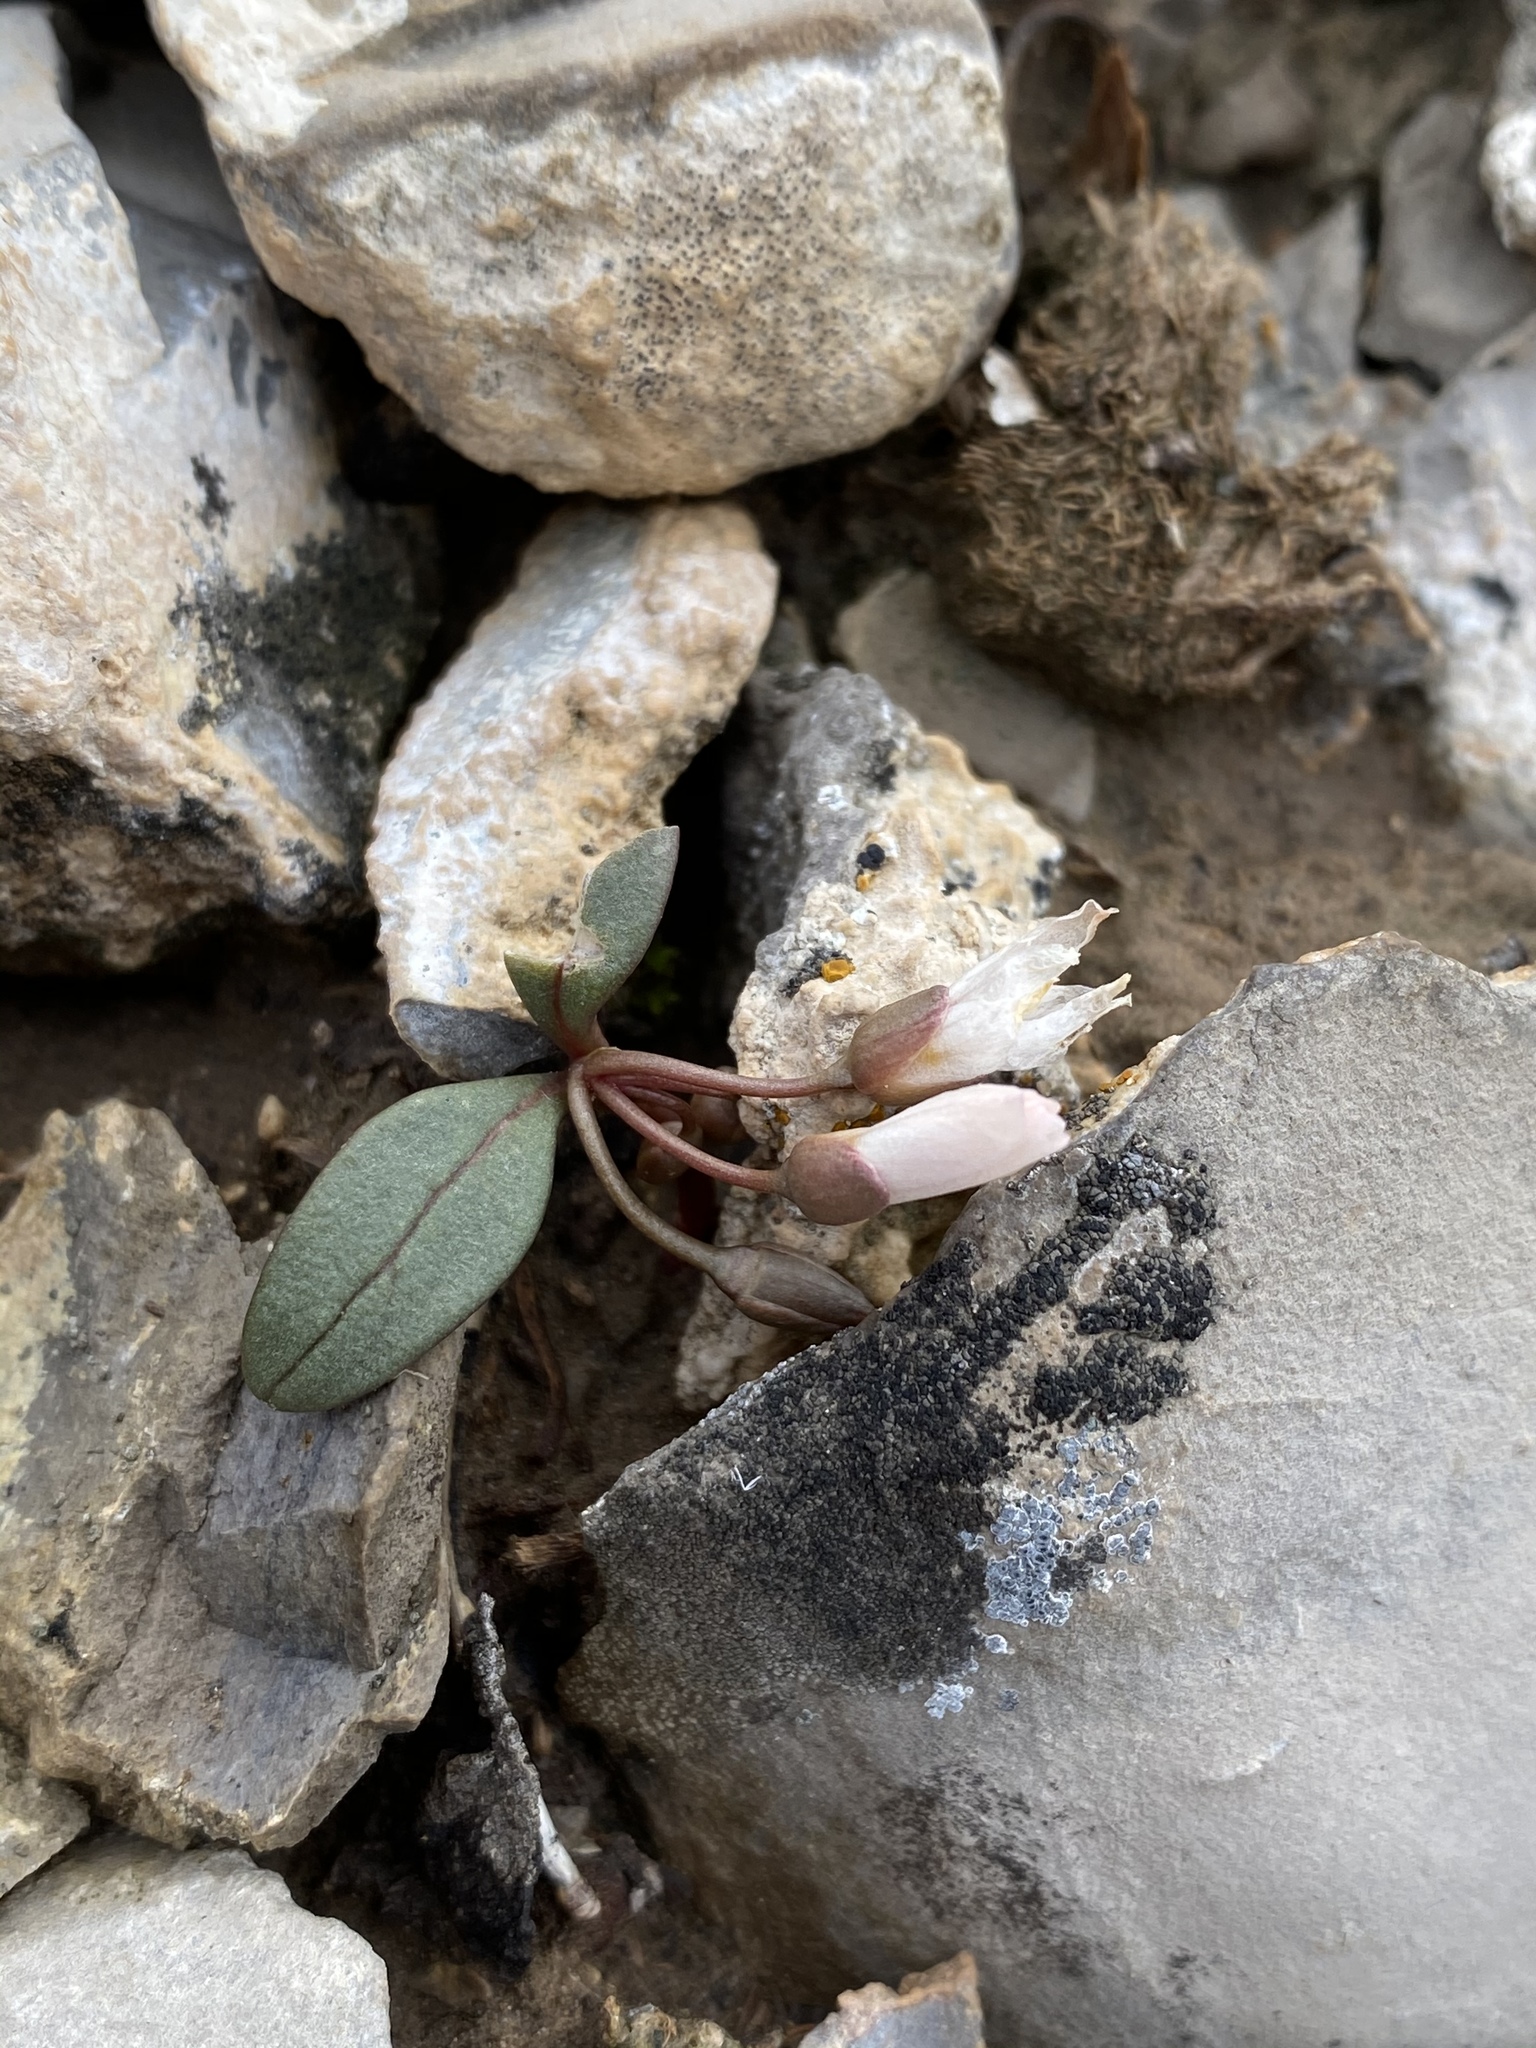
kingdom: Plantae
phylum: Tracheophyta
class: Magnoliopsida
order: Caryophyllales
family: Montiaceae
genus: Claytonia
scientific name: Claytonia panamintensis
